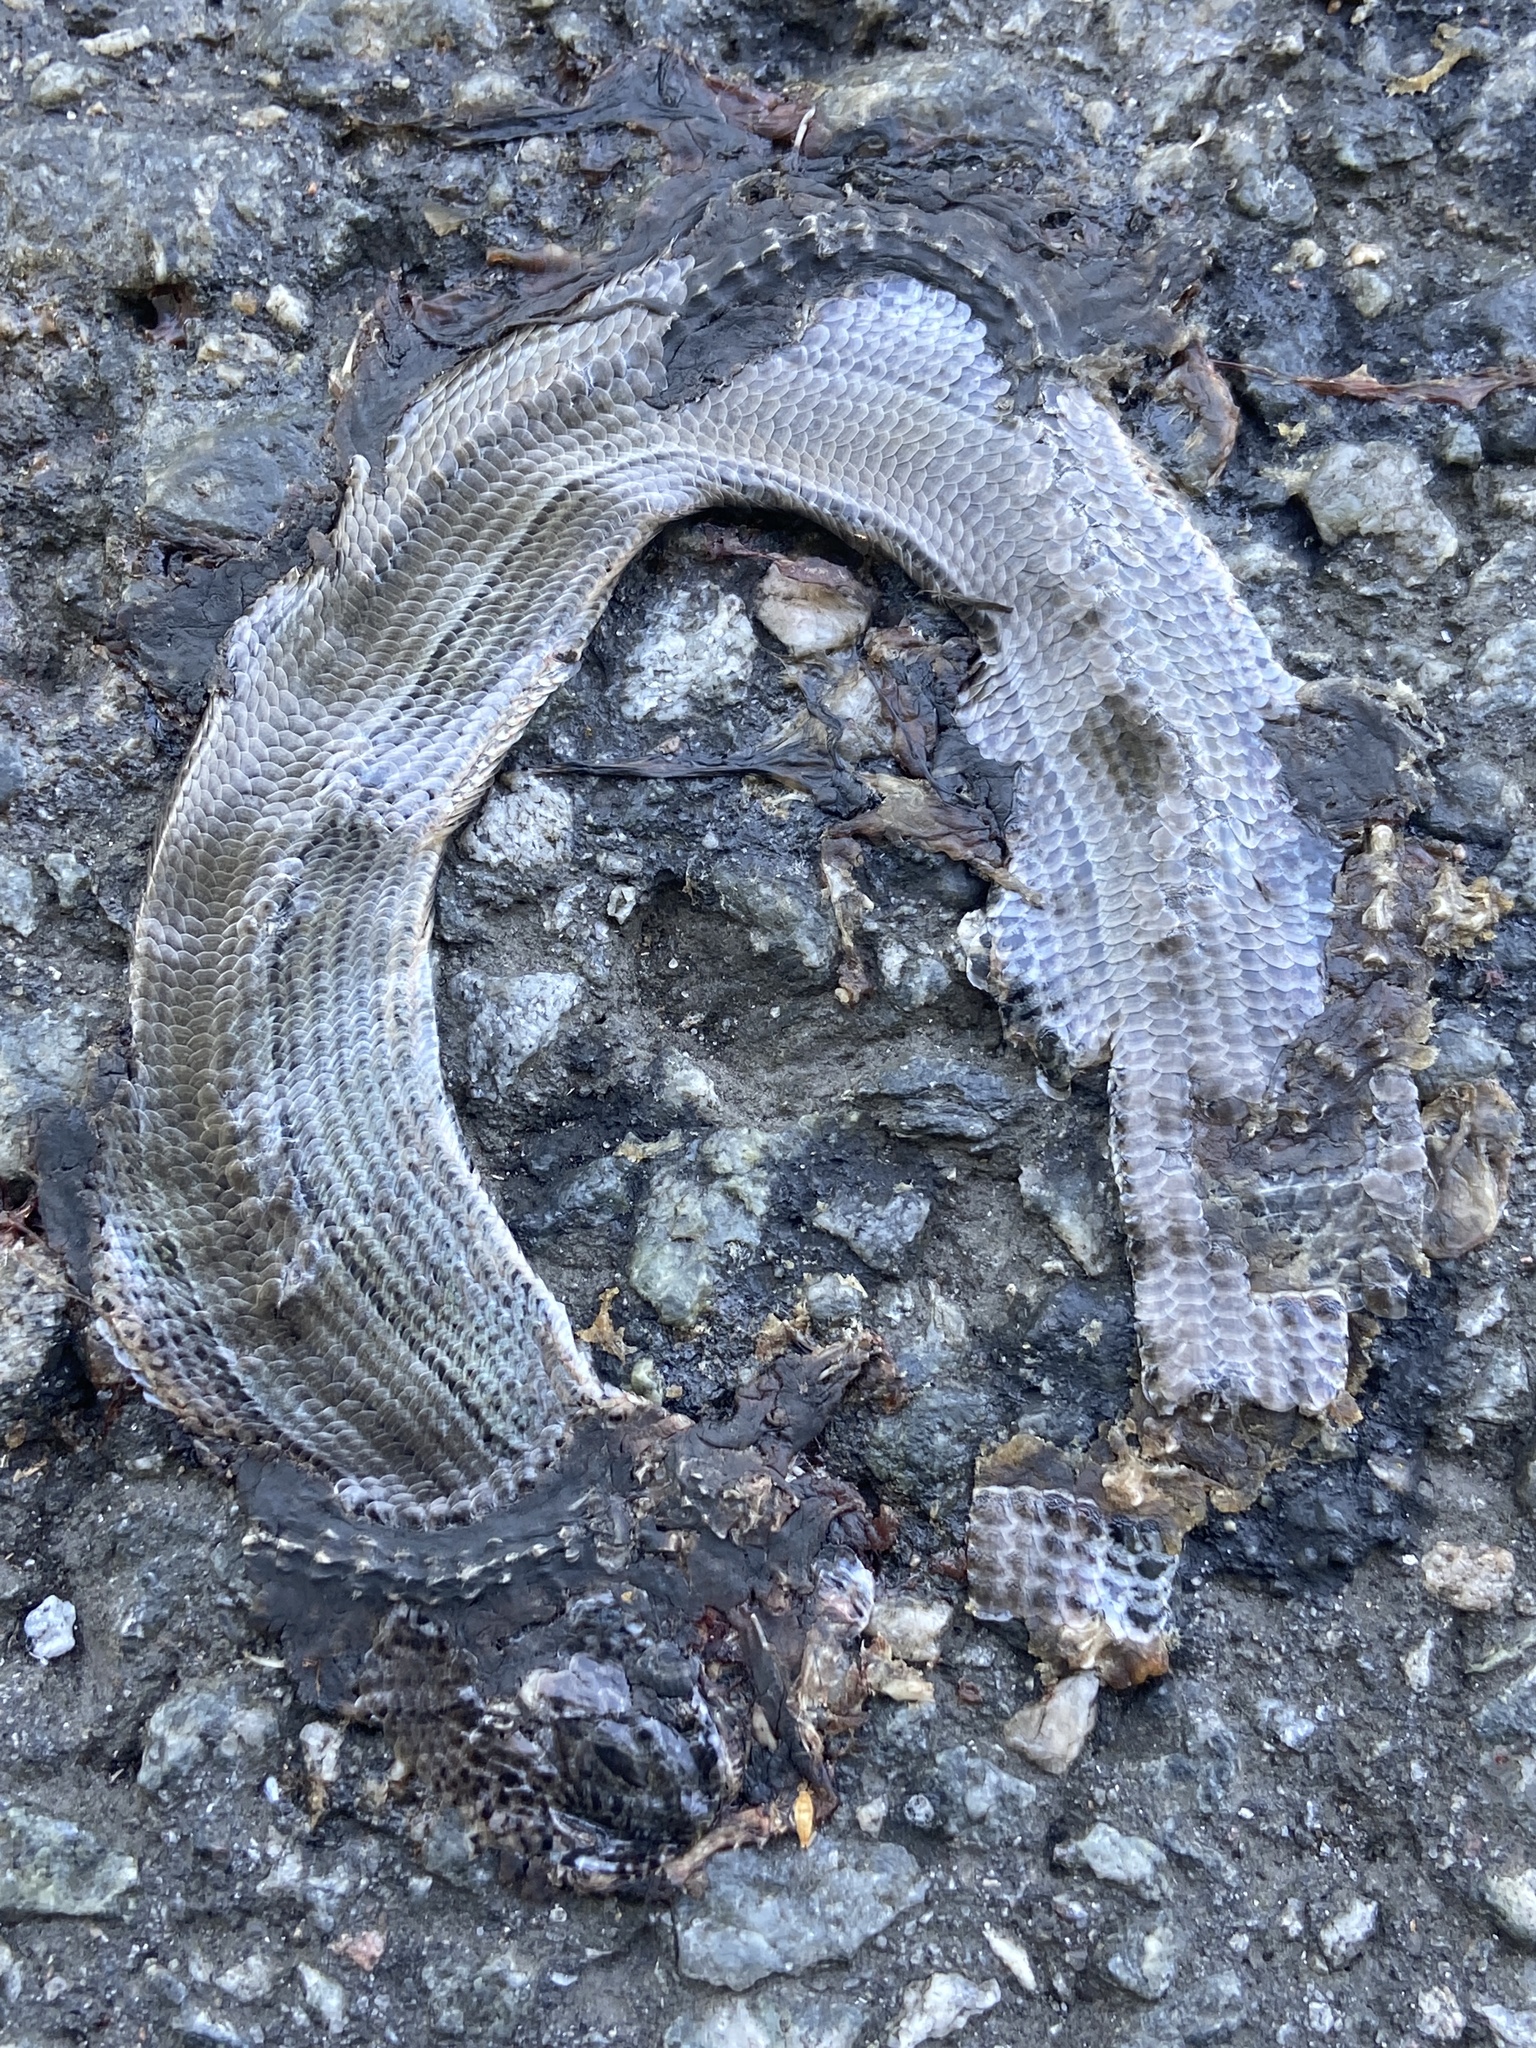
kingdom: Animalia
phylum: Chordata
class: Squamata
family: Anguidae
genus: Anguis
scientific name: Anguis fragilis
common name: Slow worm
